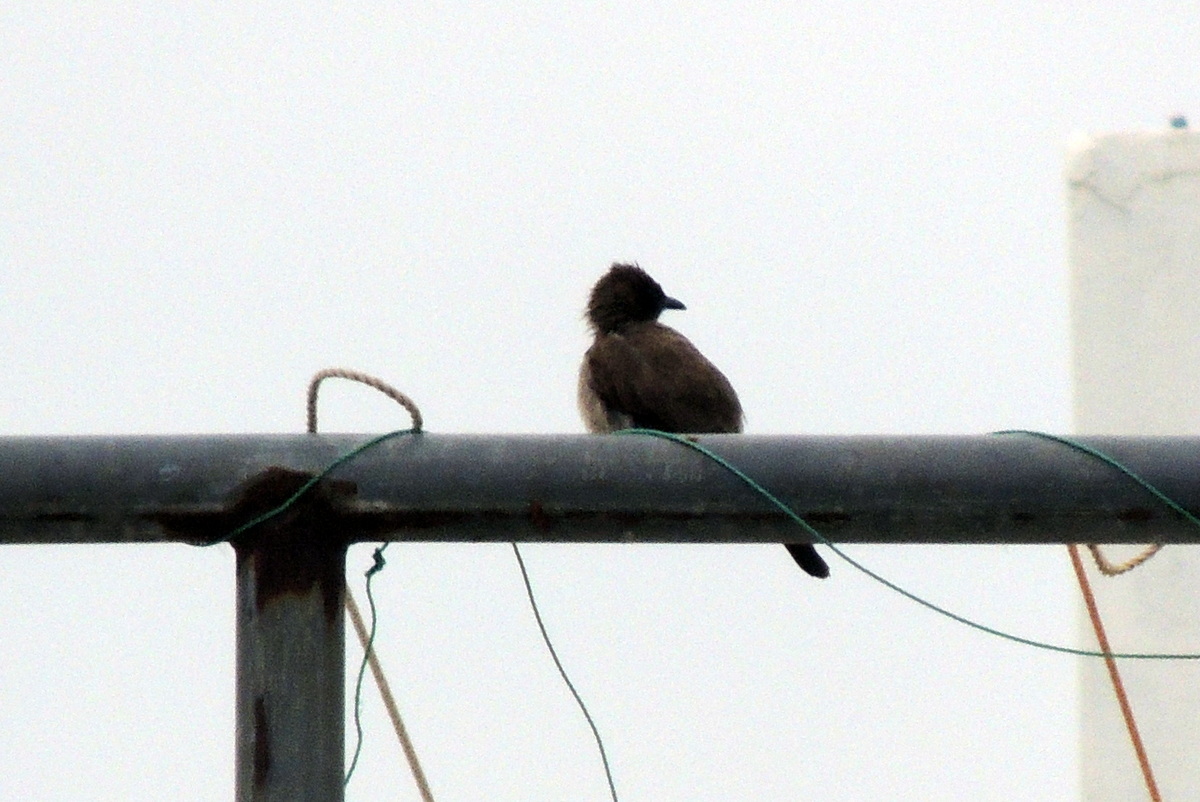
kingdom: Animalia
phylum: Chordata
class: Aves
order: Passeriformes
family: Pycnonotidae
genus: Pycnonotus
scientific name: Pycnonotus barbatus
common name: Common bulbul
